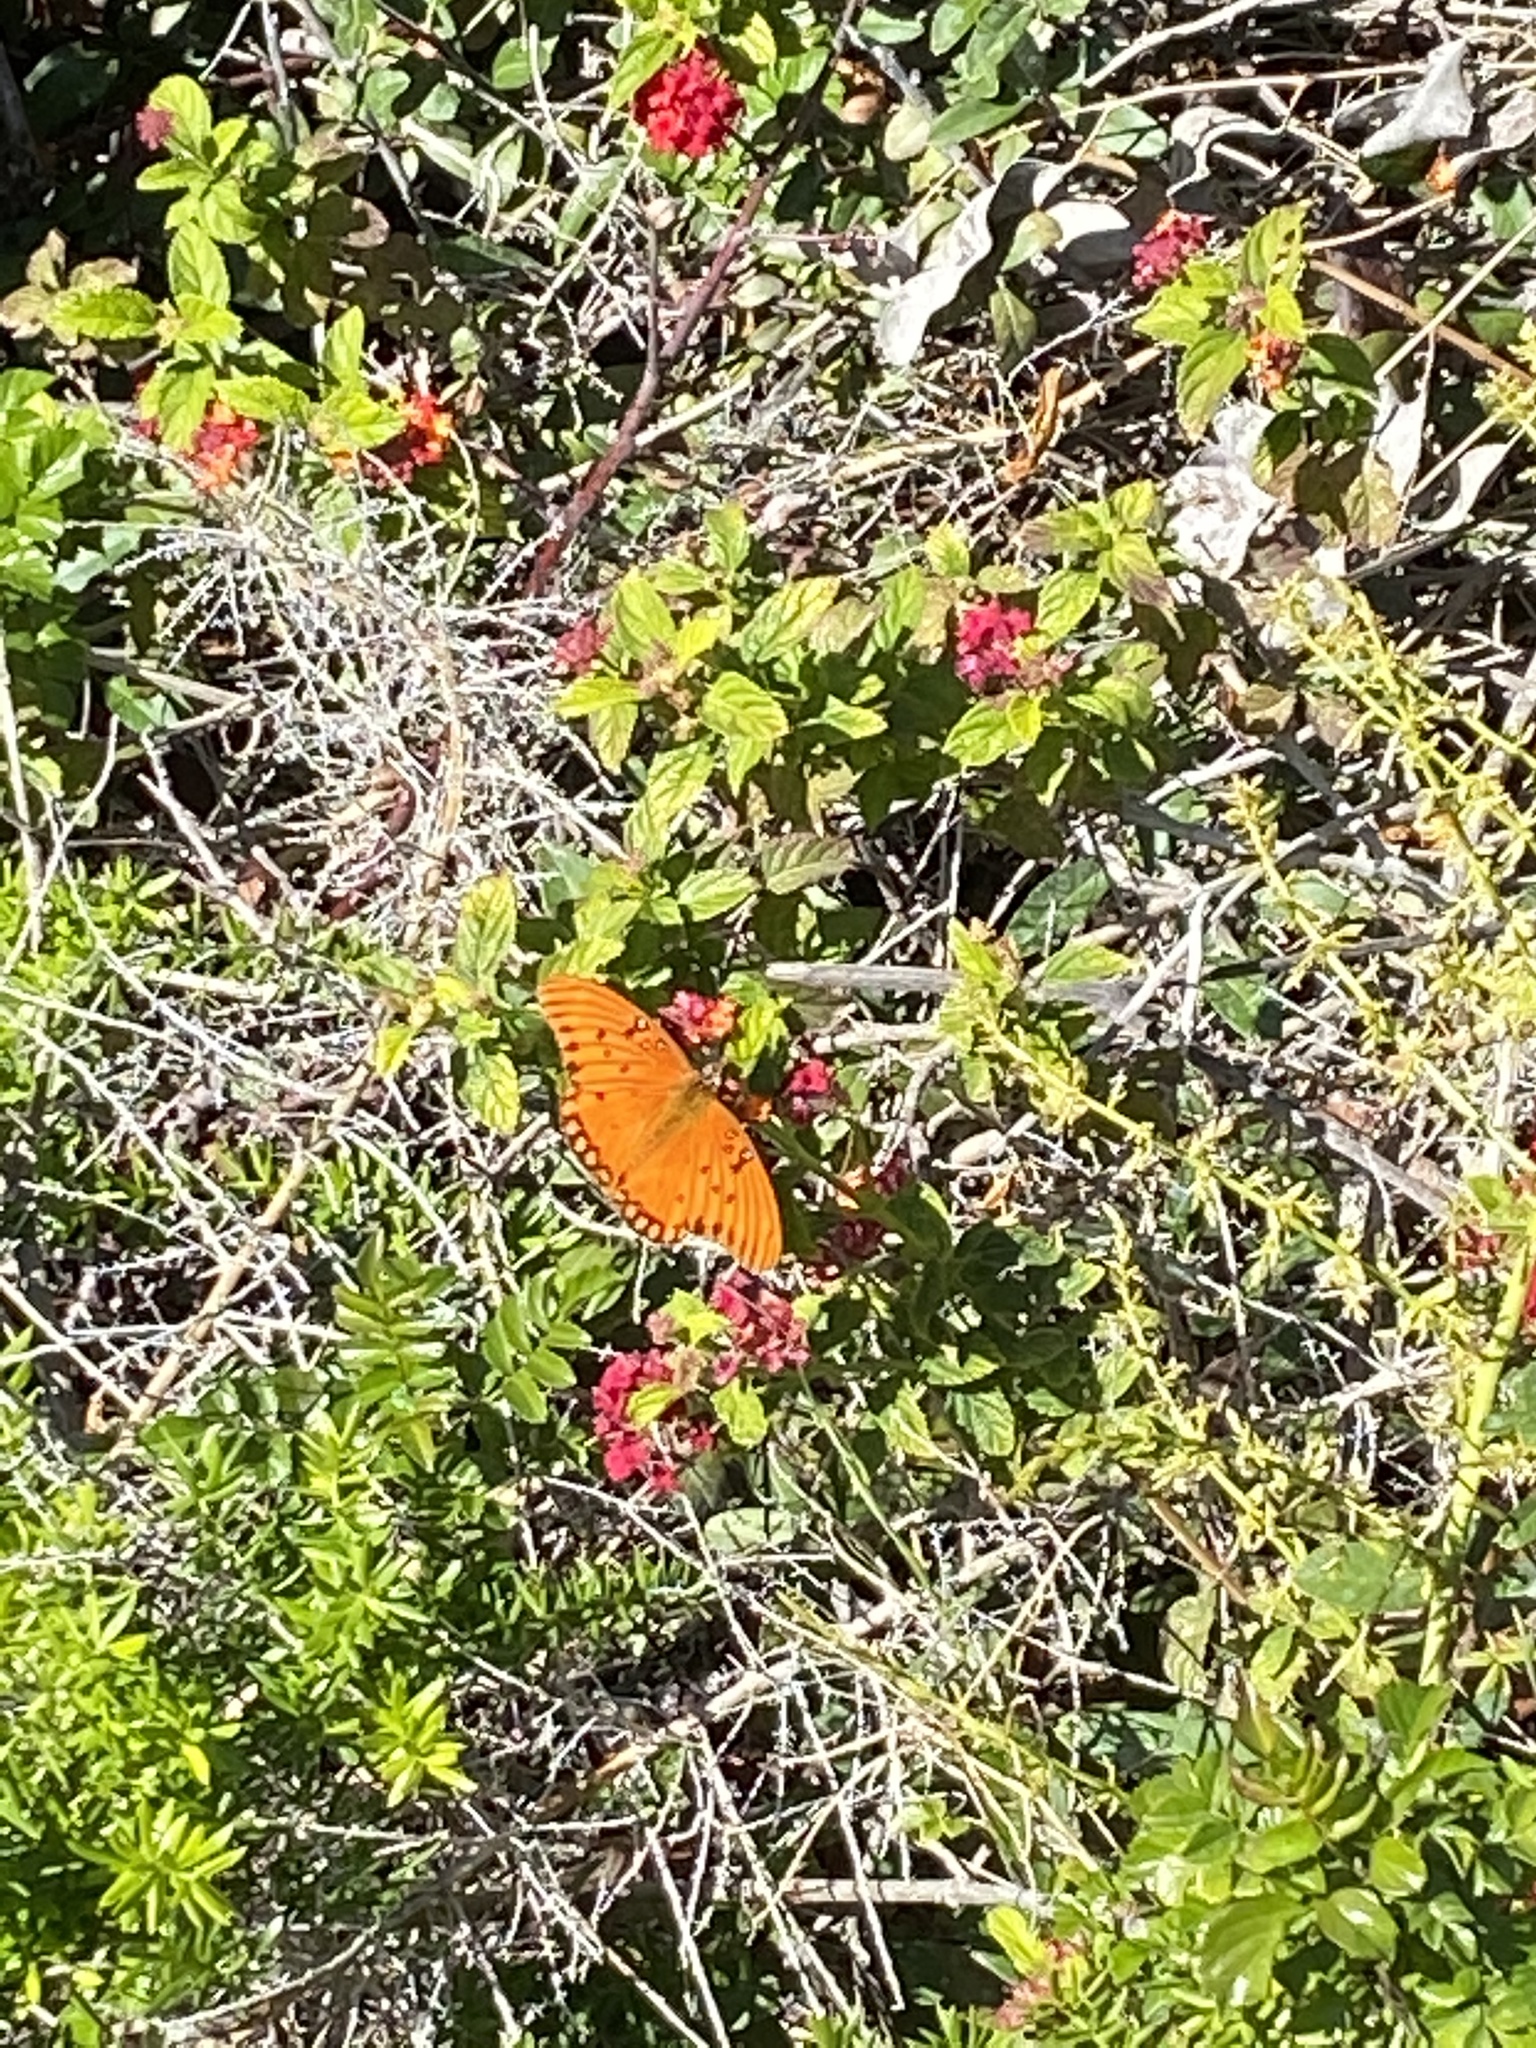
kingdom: Animalia
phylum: Arthropoda
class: Insecta
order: Lepidoptera
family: Nymphalidae
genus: Dione
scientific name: Dione vanillae
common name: Gulf fritillary
